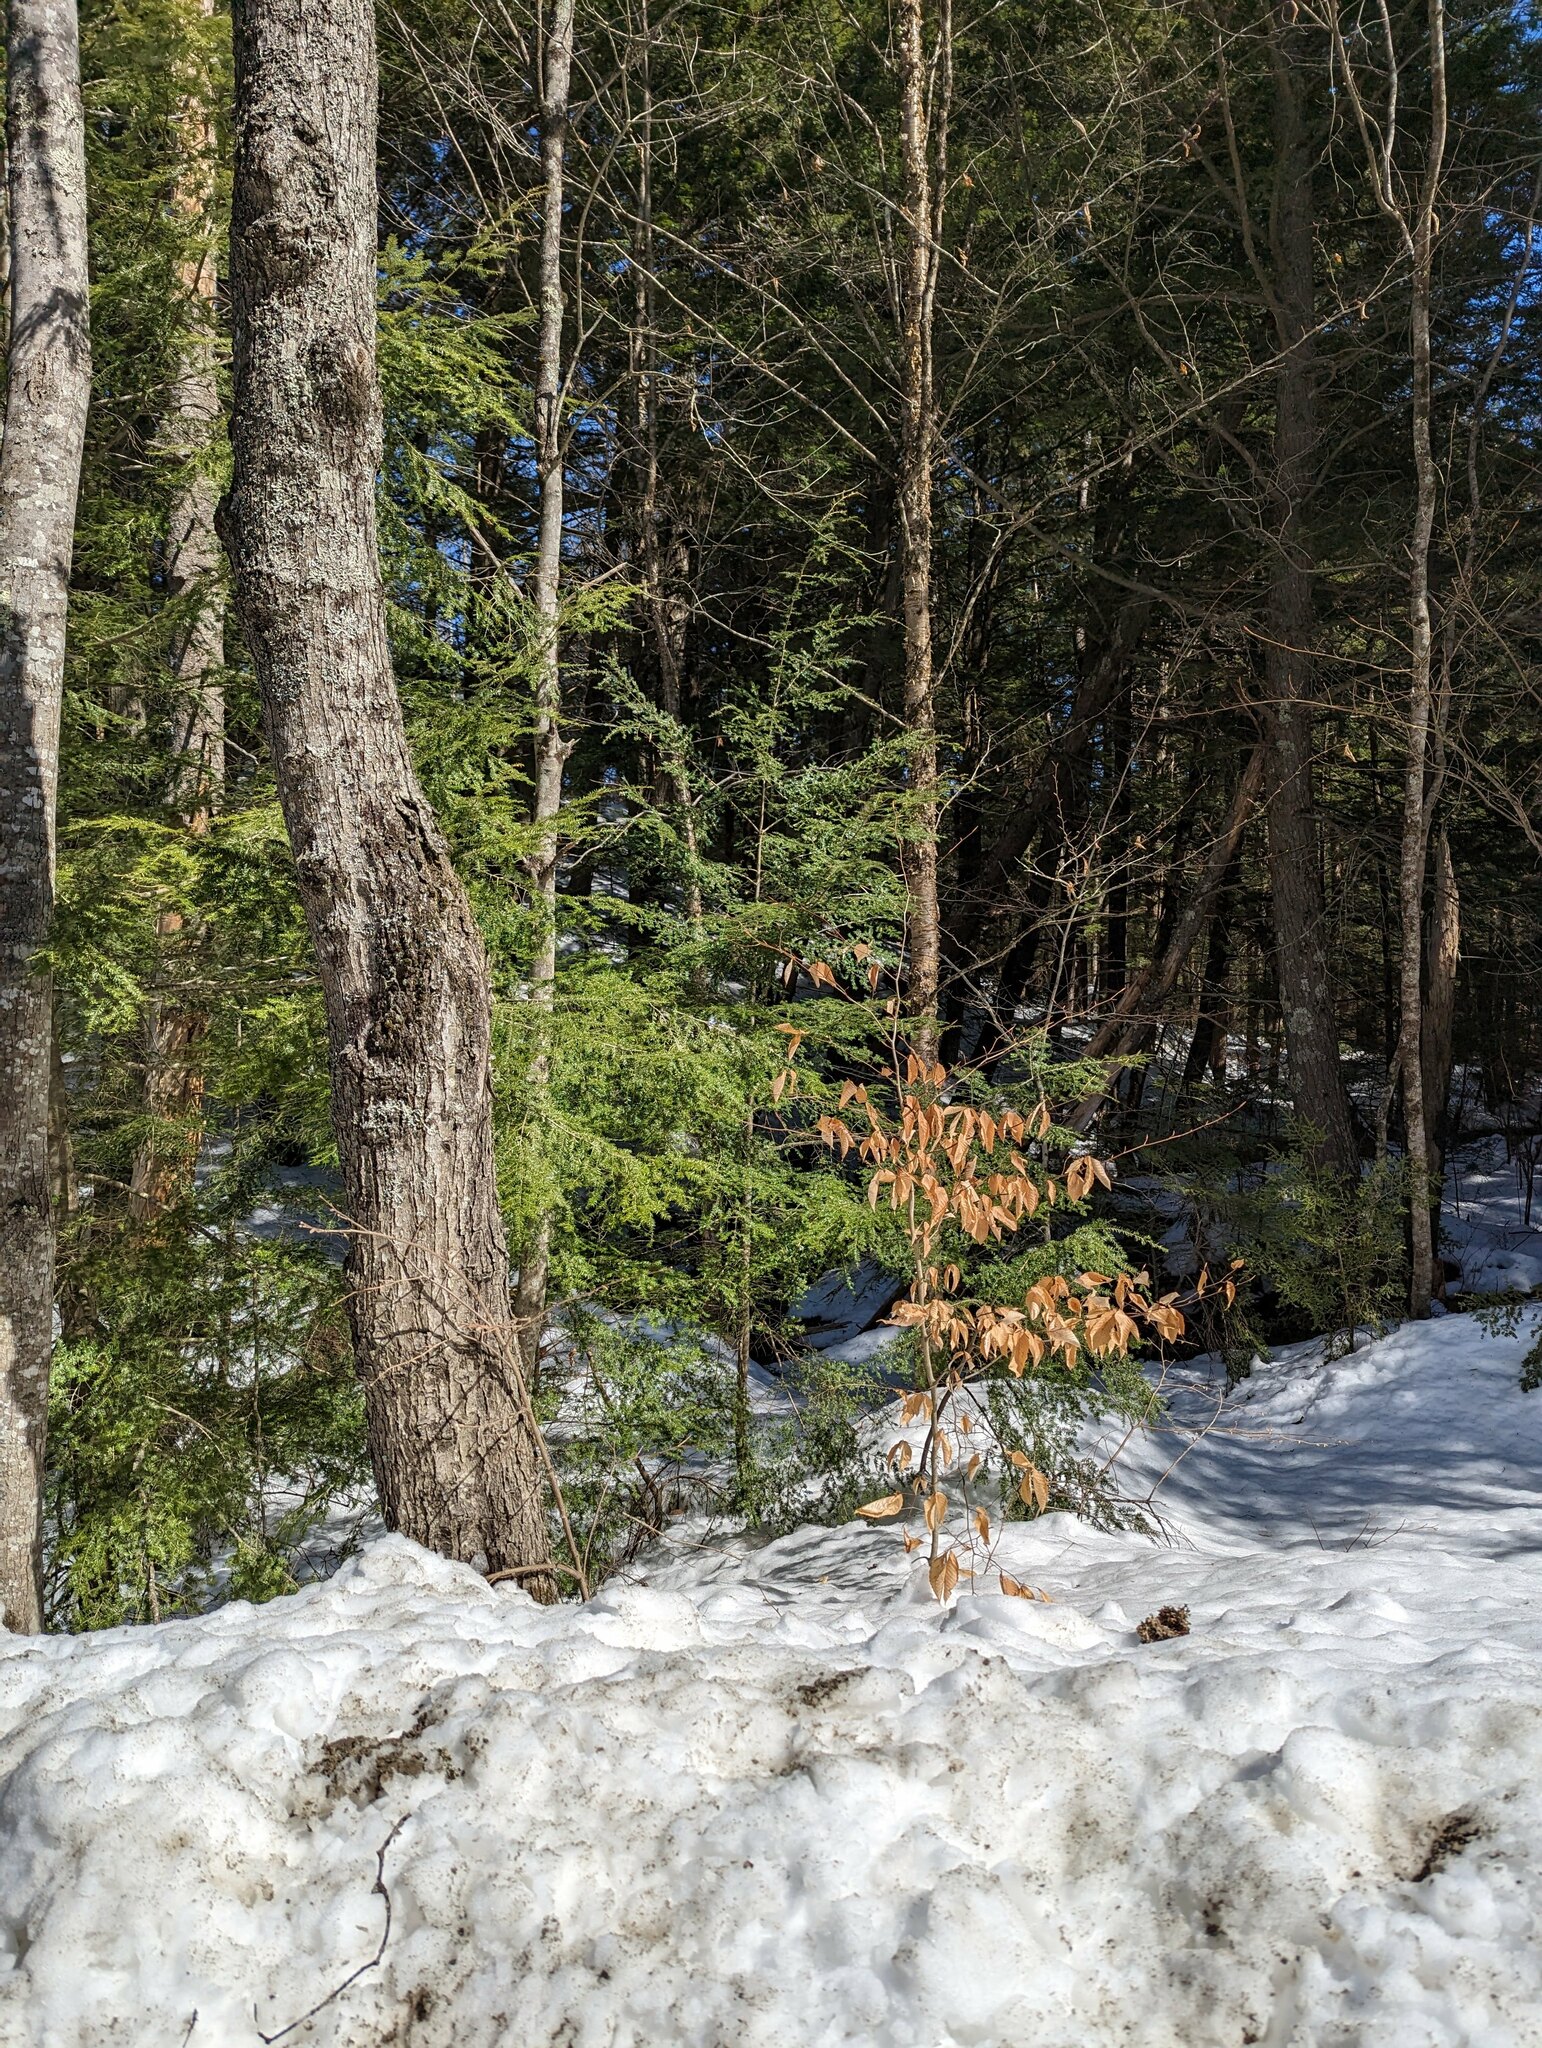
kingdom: Plantae
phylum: Tracheophyta
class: Pinopsida
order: Pinales
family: Pinaceae
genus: Tsuga
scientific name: Tsuga canadensis
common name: Eastern hemlock
